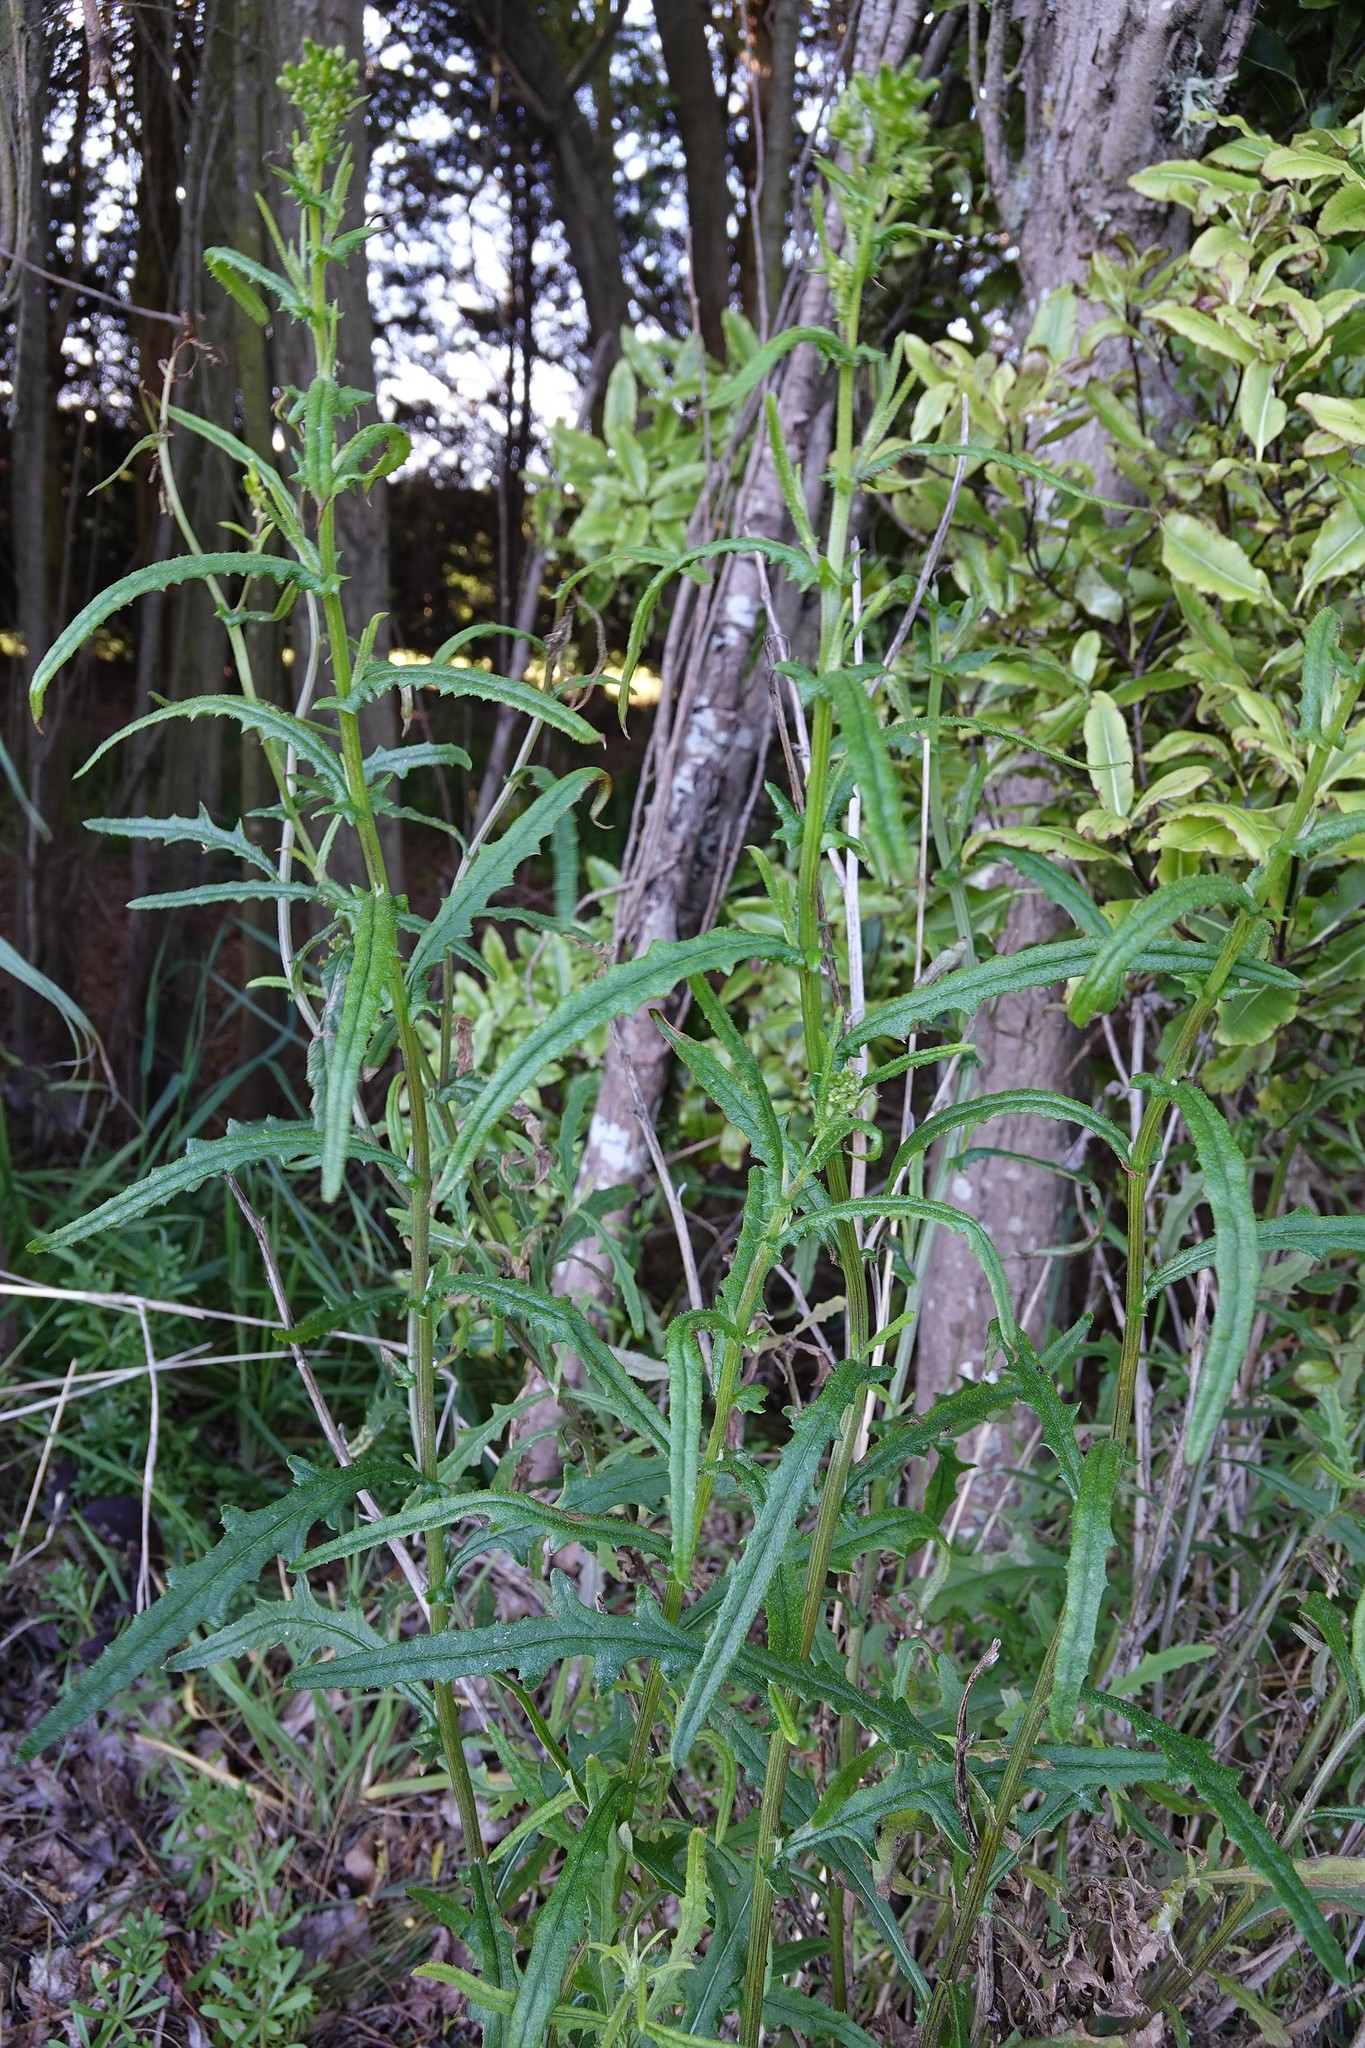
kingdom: Plantae
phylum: Tracheophyta
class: Magnoliopsida
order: Asterales
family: Asteraceae
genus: Senecio
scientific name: Senecio hispidulus
